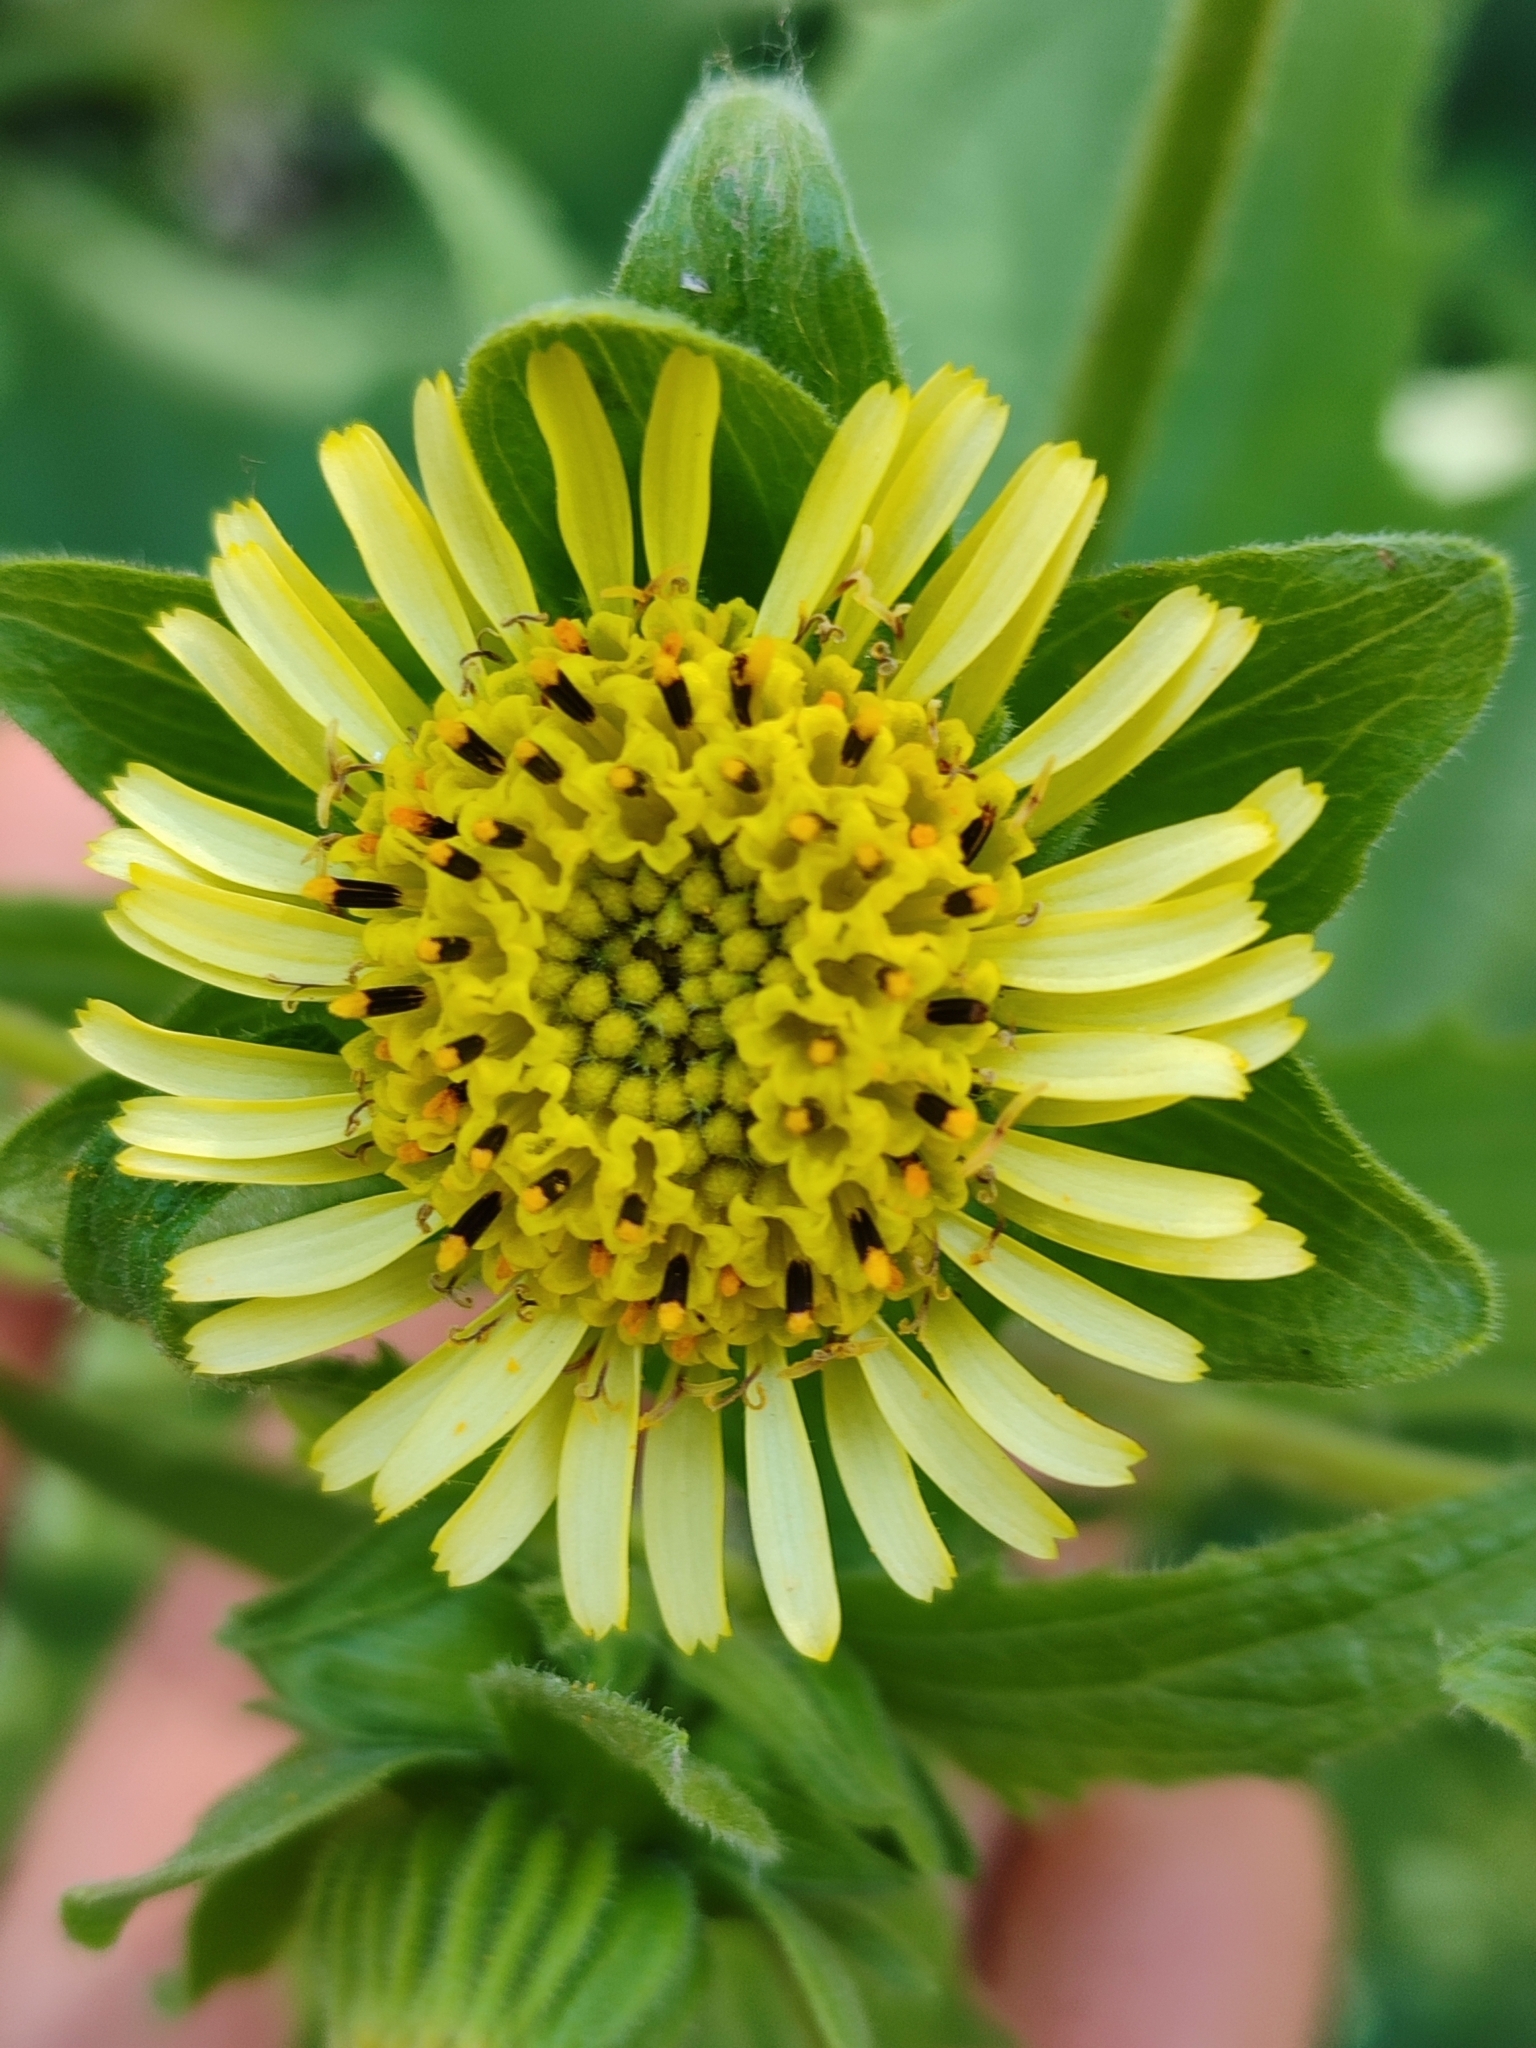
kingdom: Plantae
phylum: Tracheophyta
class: Magnoliopsida
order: Asterales
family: Asteraceae
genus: Smallanthus
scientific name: Smallanthus connatus
